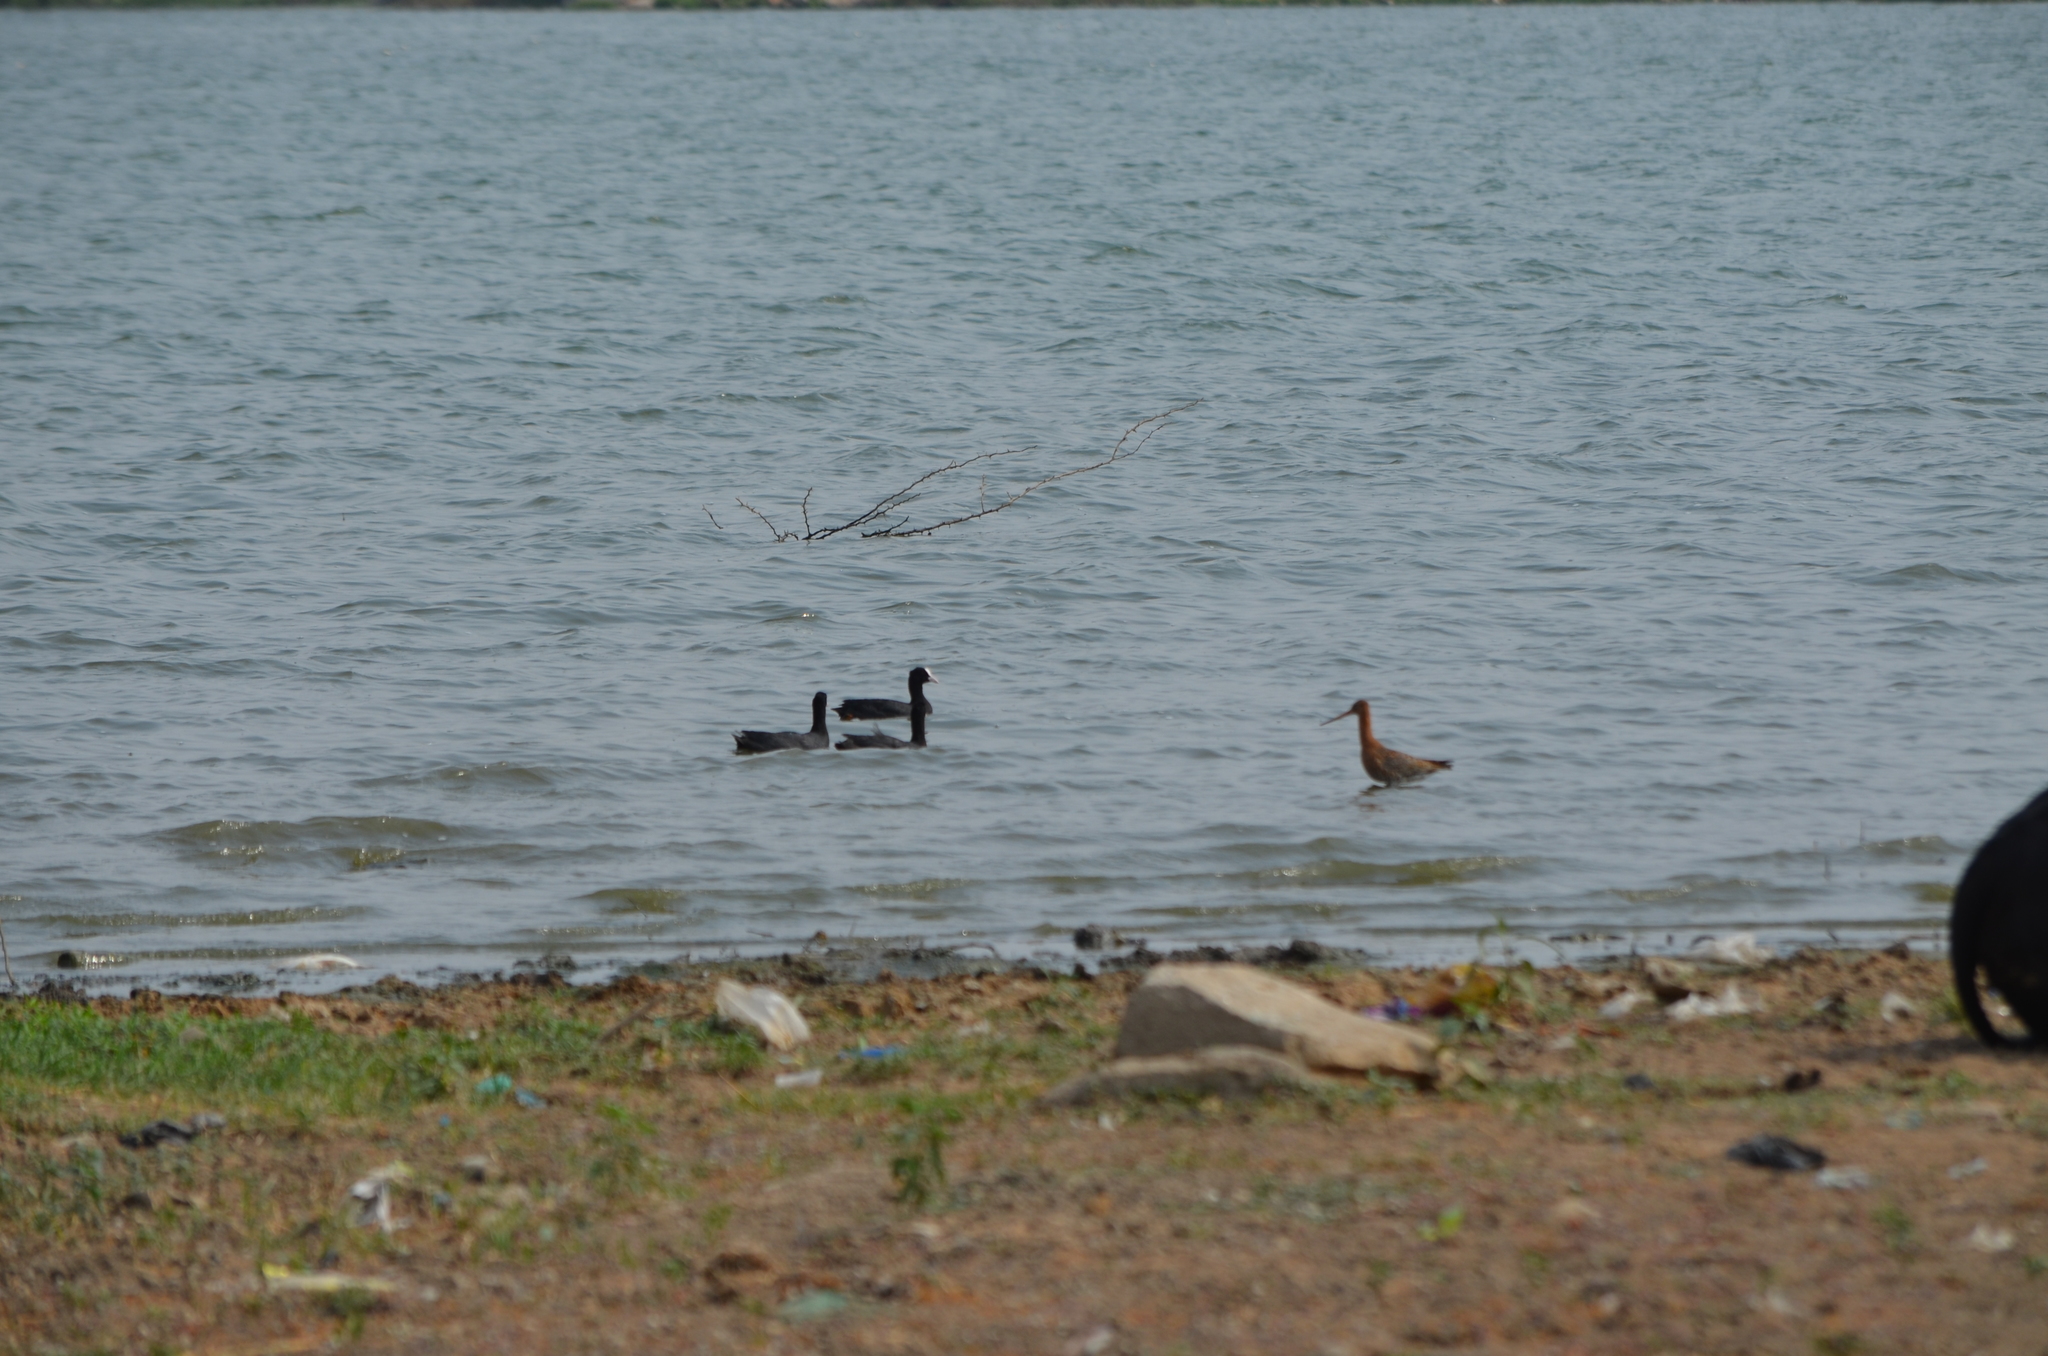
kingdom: Animalia
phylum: Chordata
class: Aves
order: Gruiformes
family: Rallidae
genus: Fulica
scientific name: Fulica atra
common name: Eurasian coot
